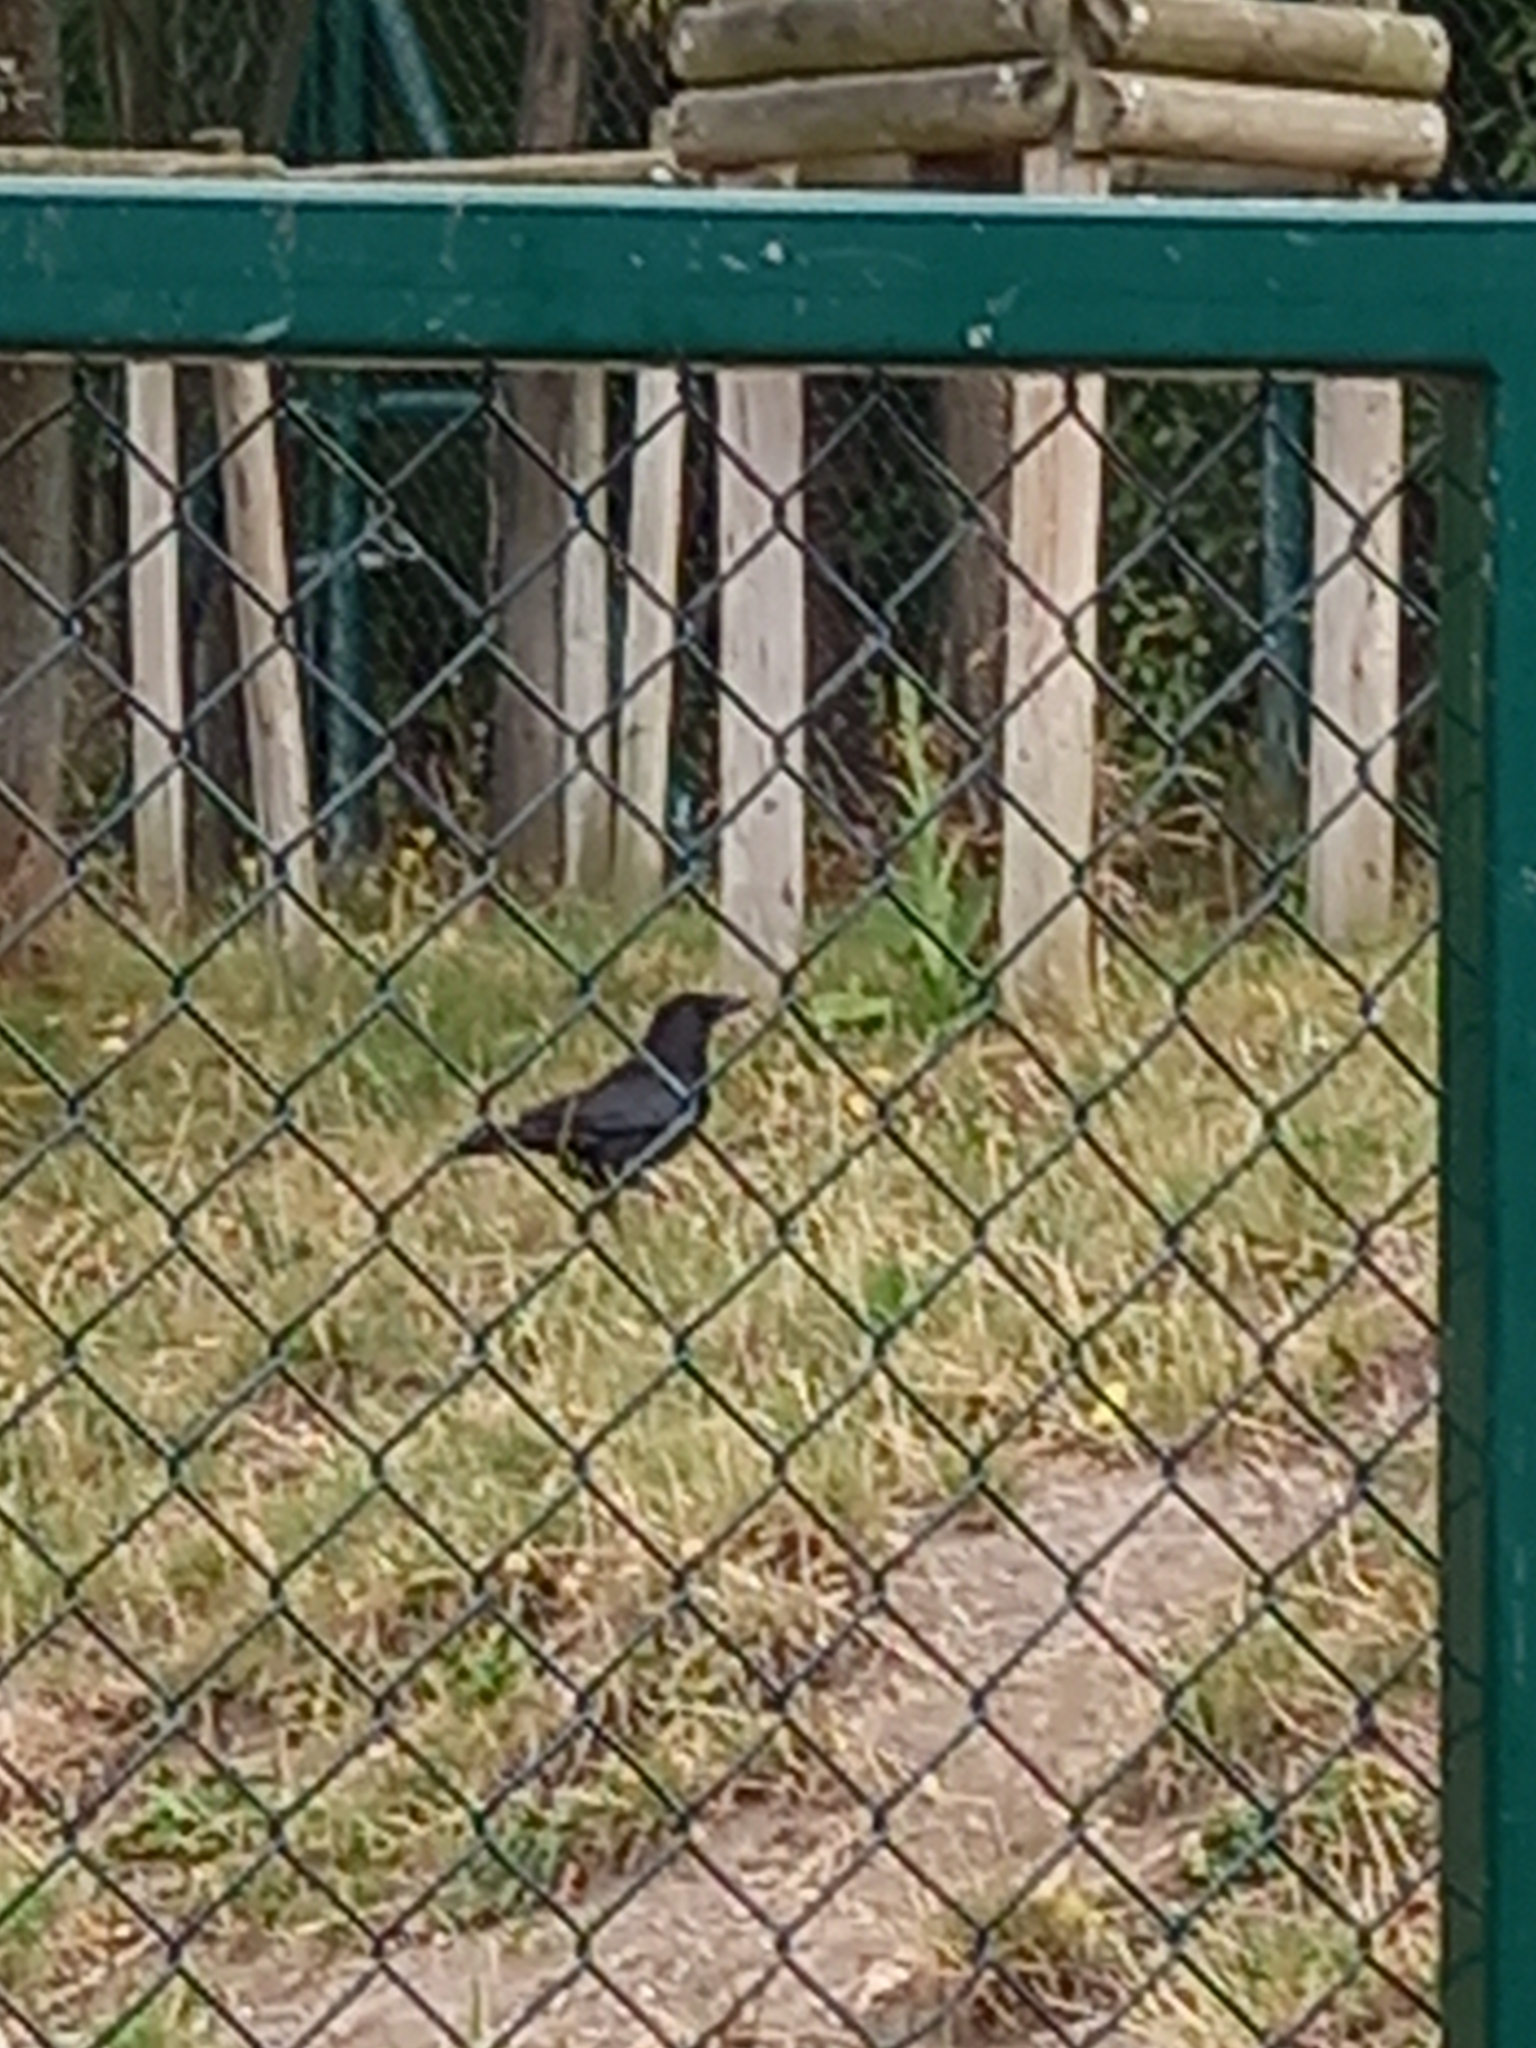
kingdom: Animalia
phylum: Chordata
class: Aves
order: Passeriformes
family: Corvidae
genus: Corvus
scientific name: Corvus corone
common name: Carrion crow
